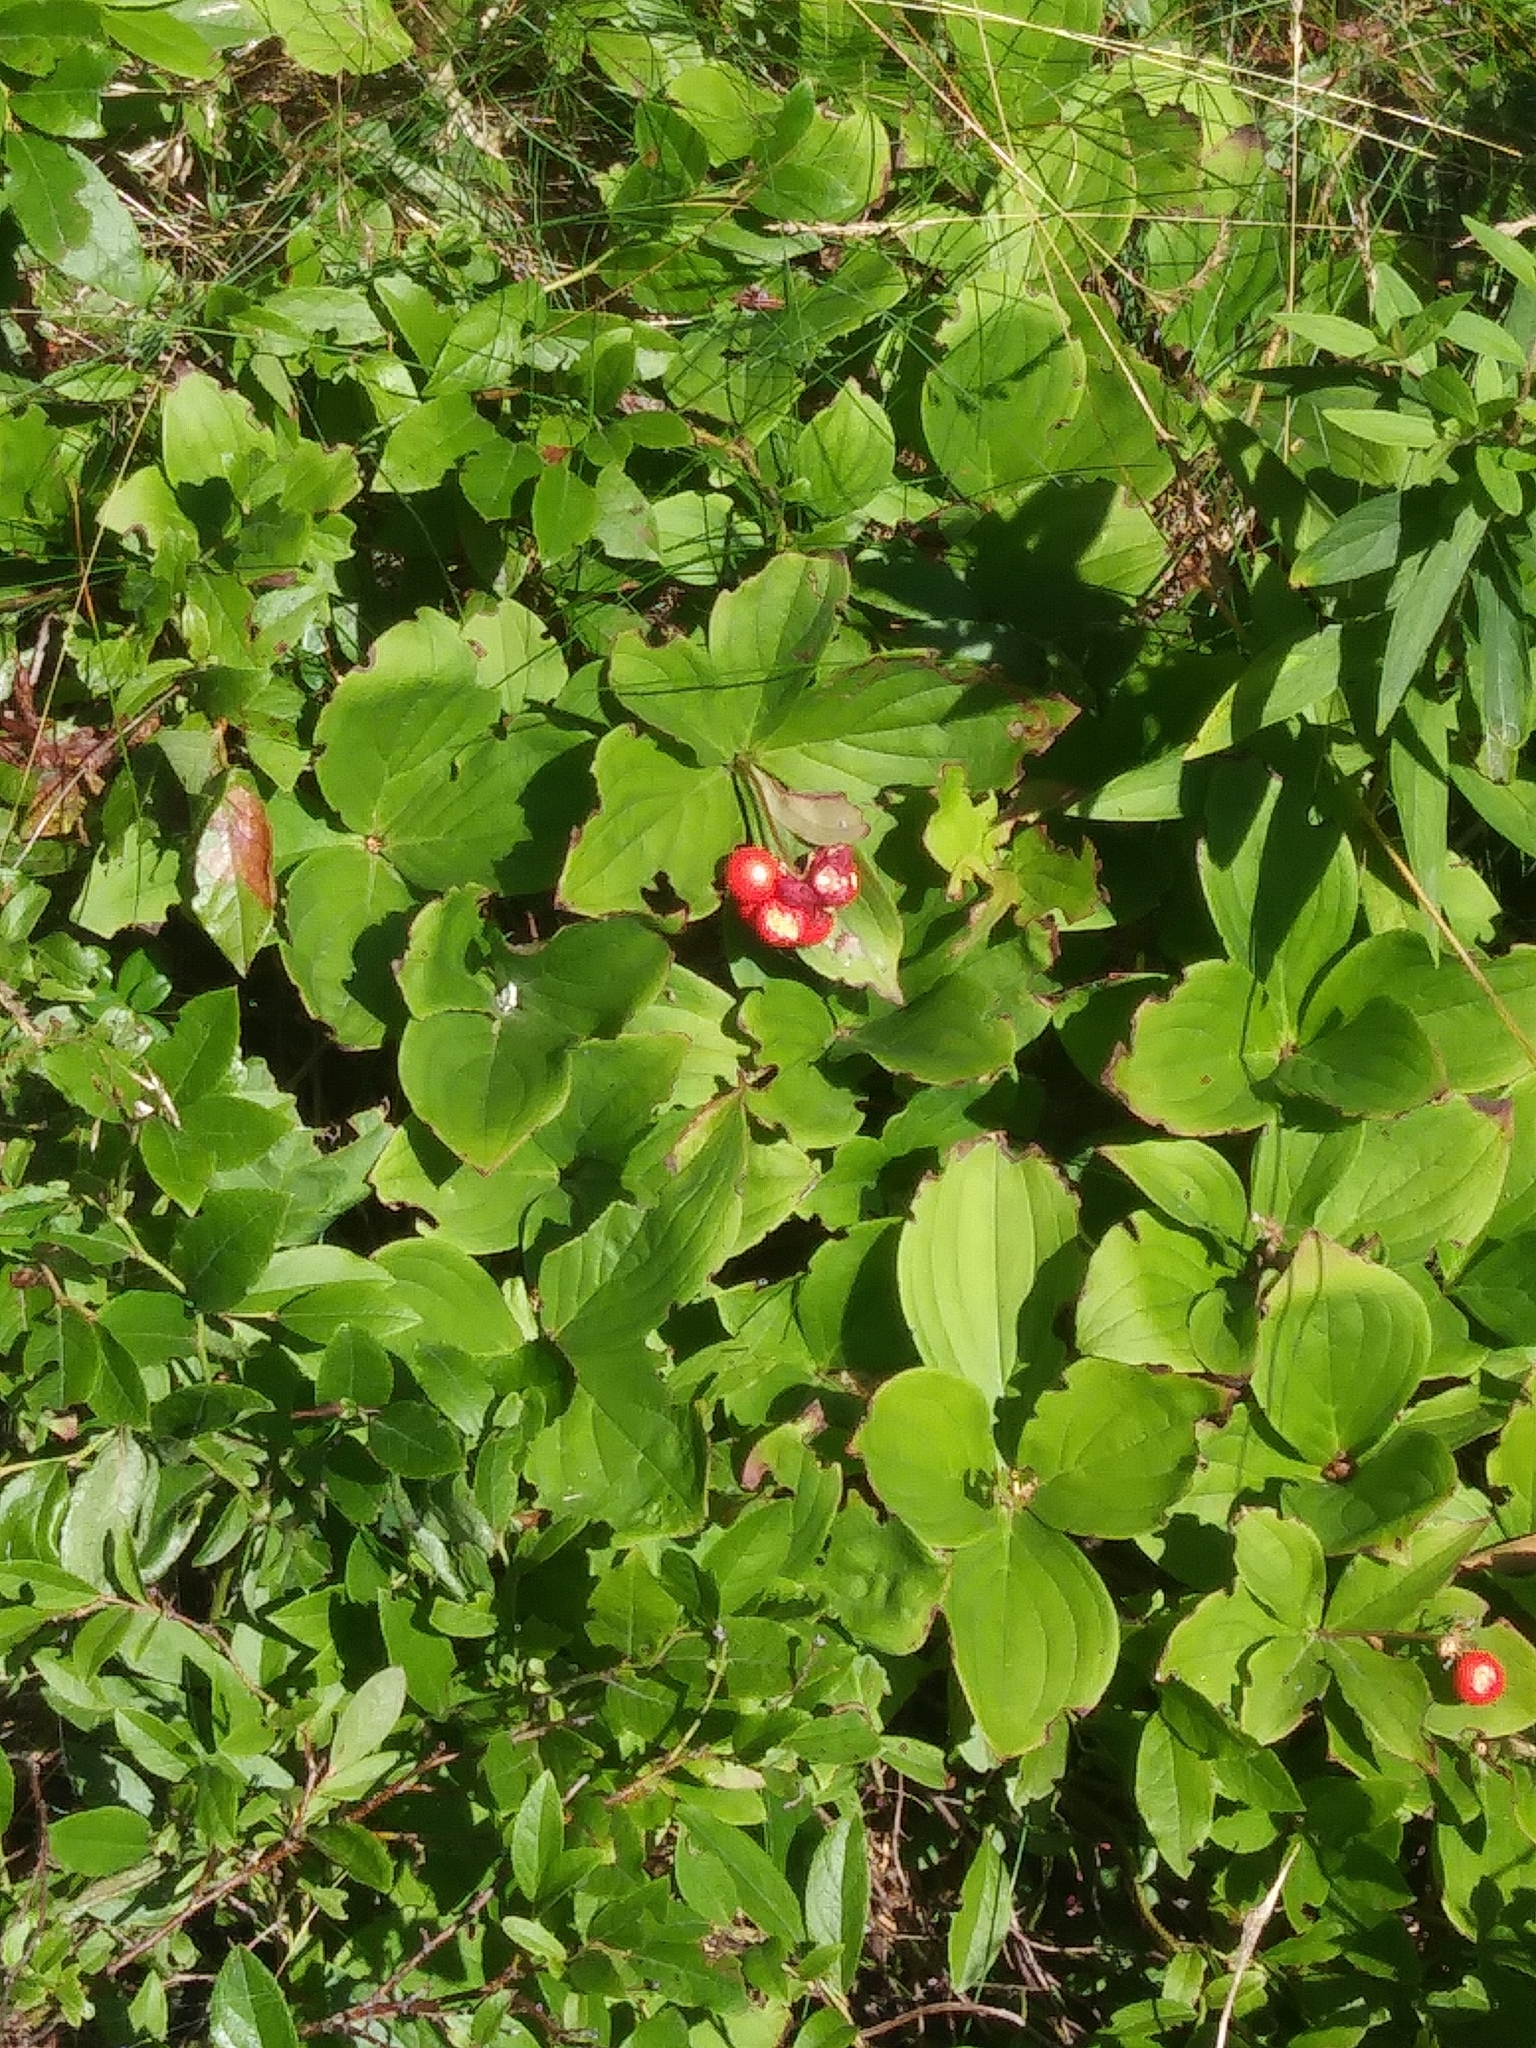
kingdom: Plantae
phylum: Tracheophyta
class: Magnoliopsida
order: Cornales
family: Cornaceae
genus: Cornus
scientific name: Cornus canadensis
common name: Creeping dogwood
